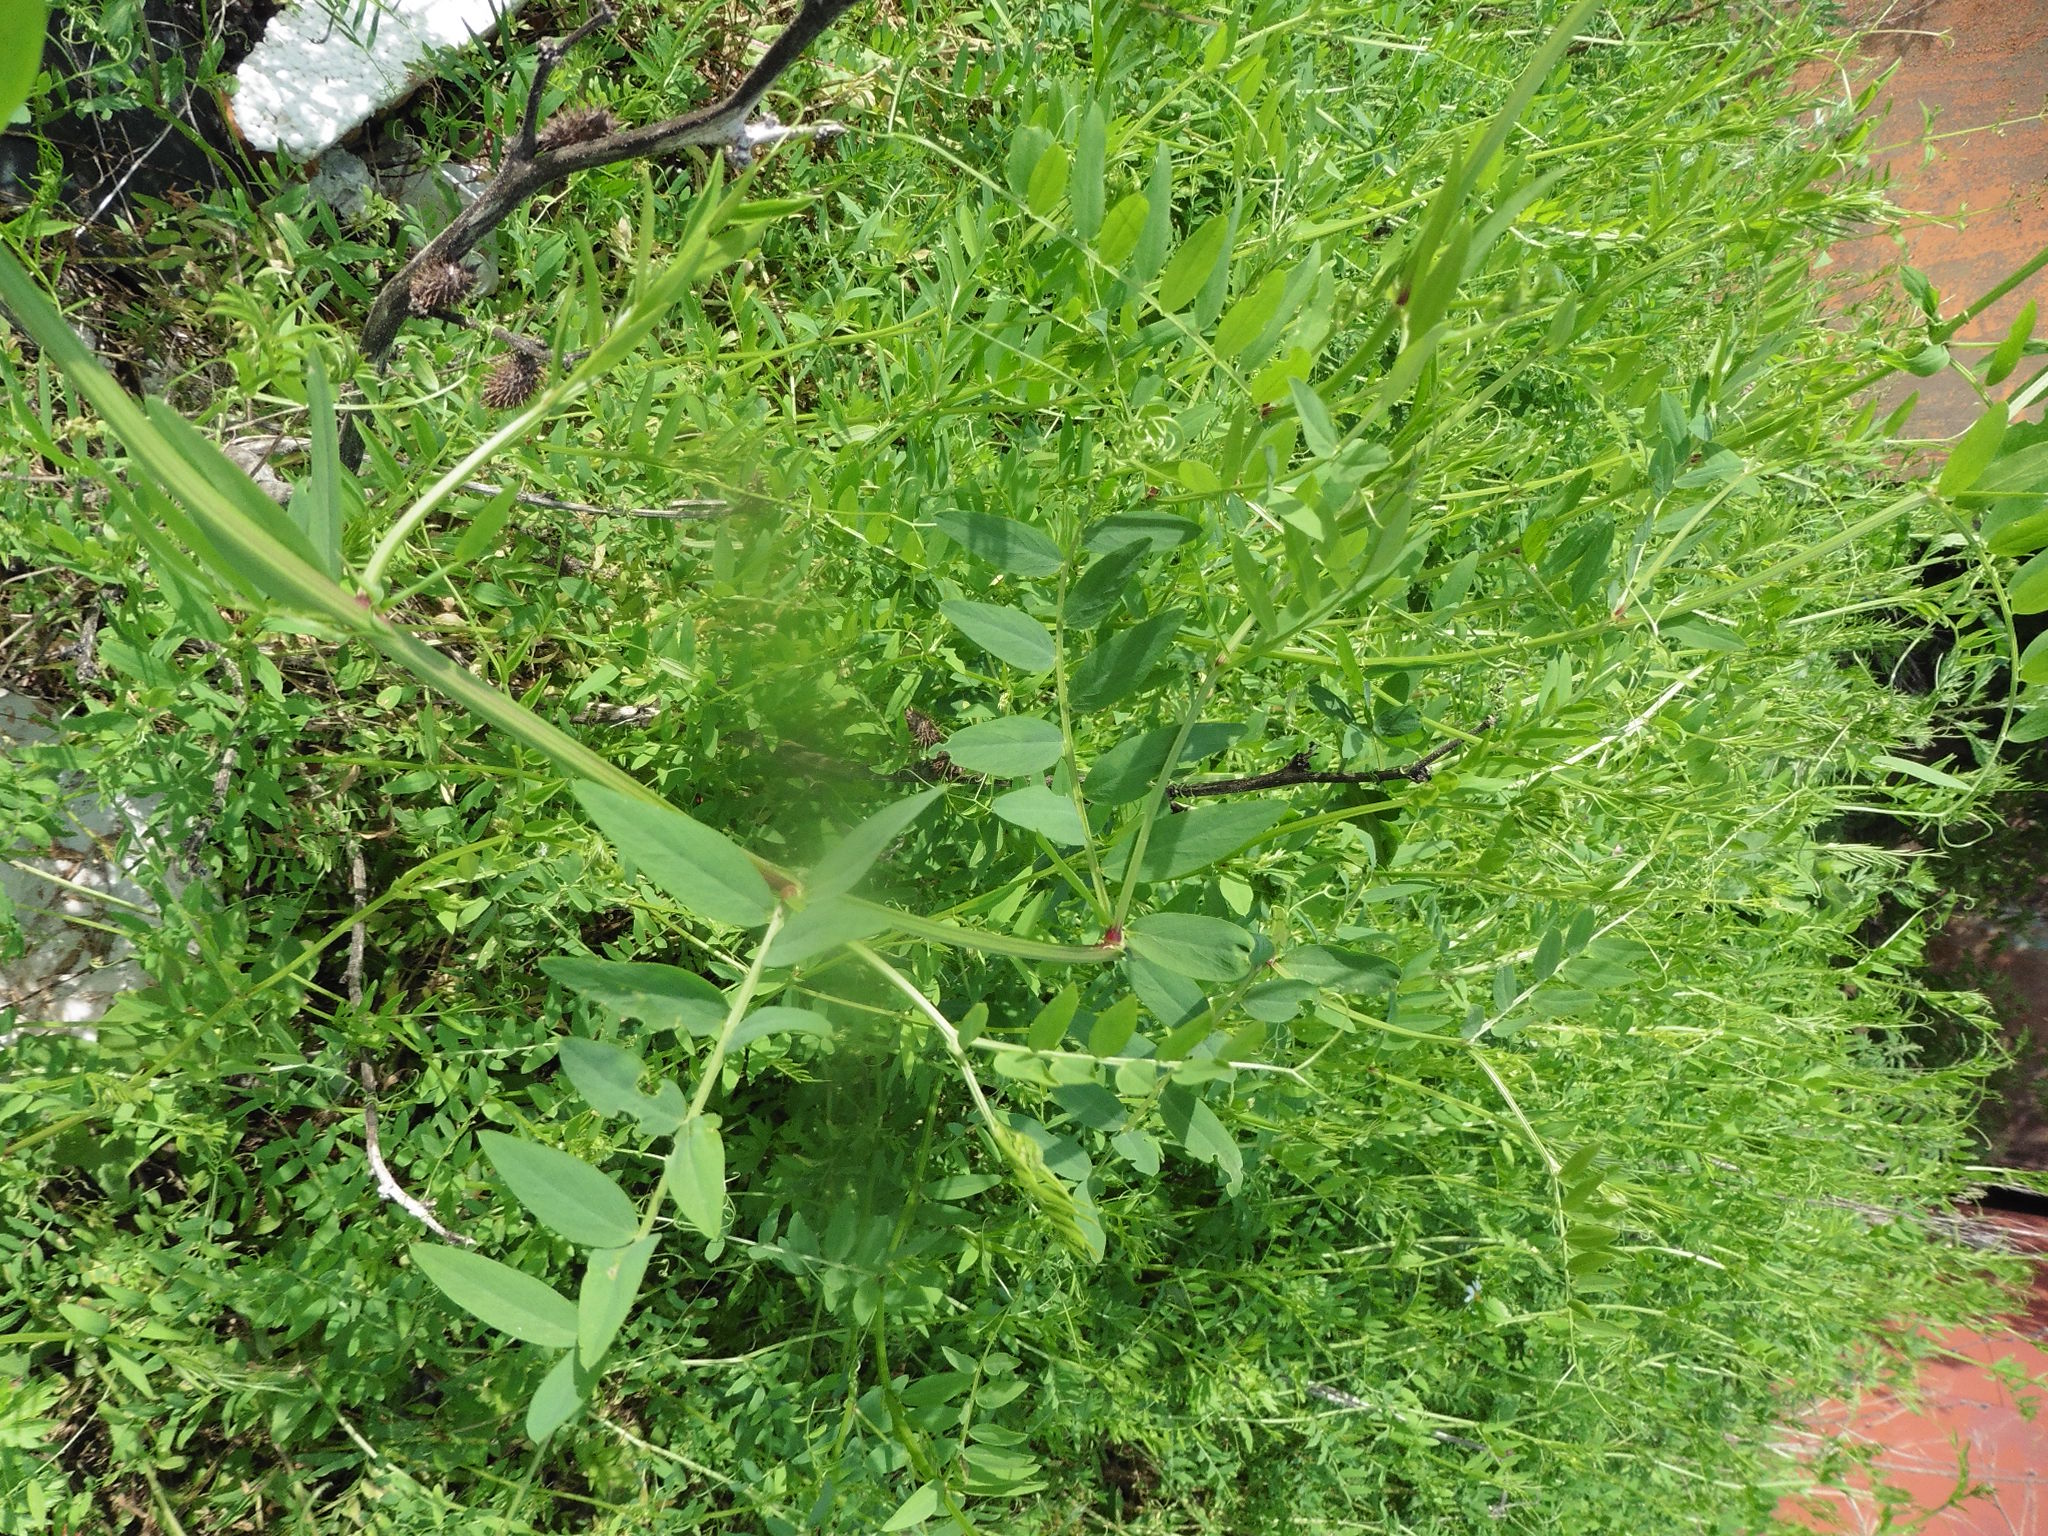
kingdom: Plantae
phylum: Tracheophyta
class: Magnoliopsida
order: Fabales
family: Fabaceae
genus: Vicia
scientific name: Vicia biennis
